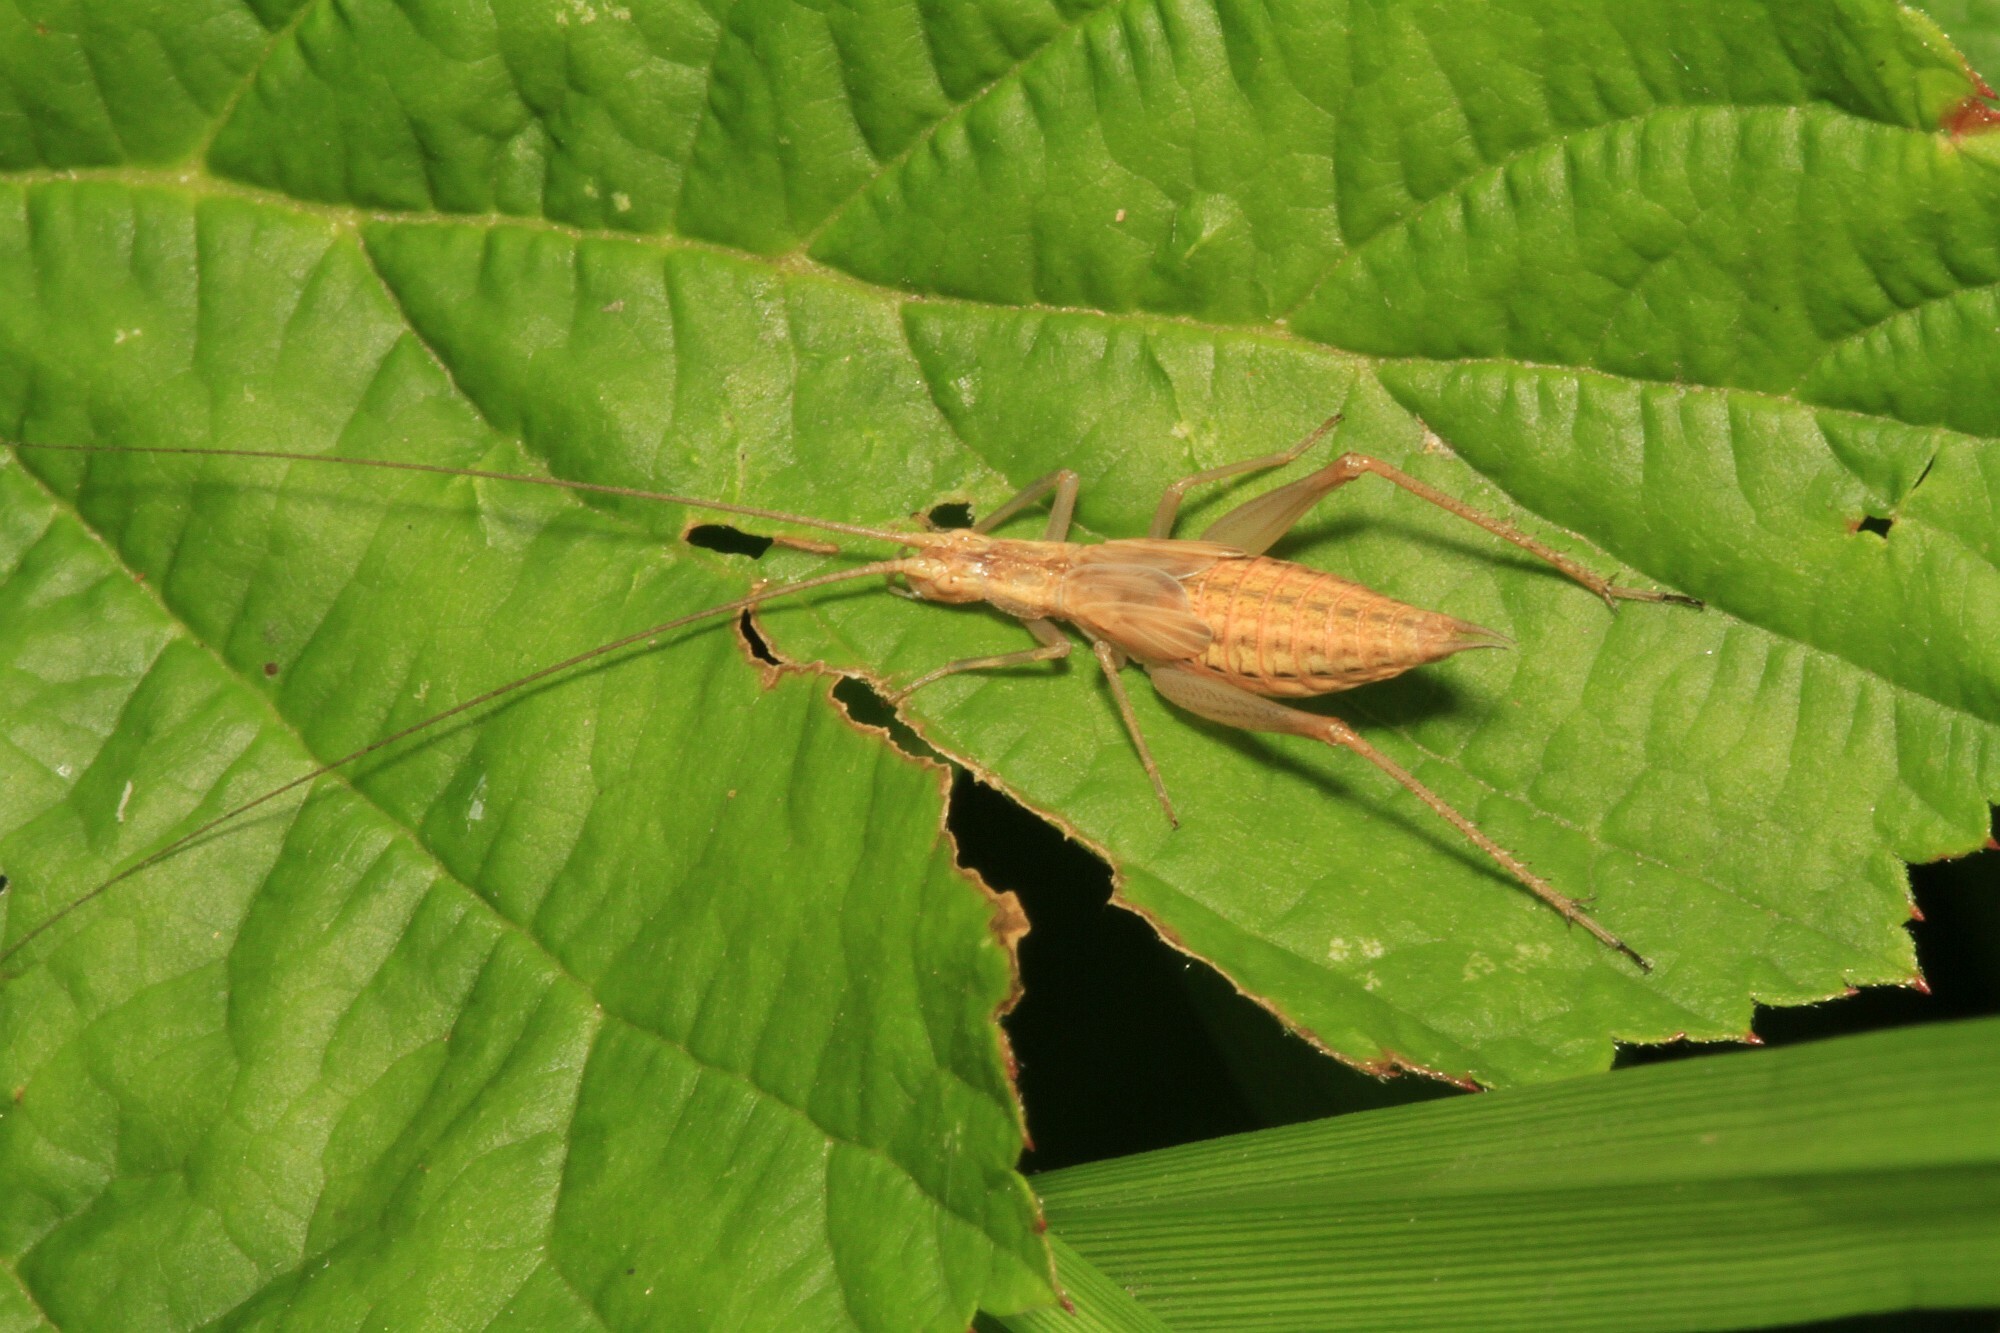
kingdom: Animalia
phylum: Arthropoda
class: Insecta
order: Orthoptera
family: Gryllidae
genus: Oecanthus
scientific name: Oecanthus pellucens
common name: Tree-cricket
